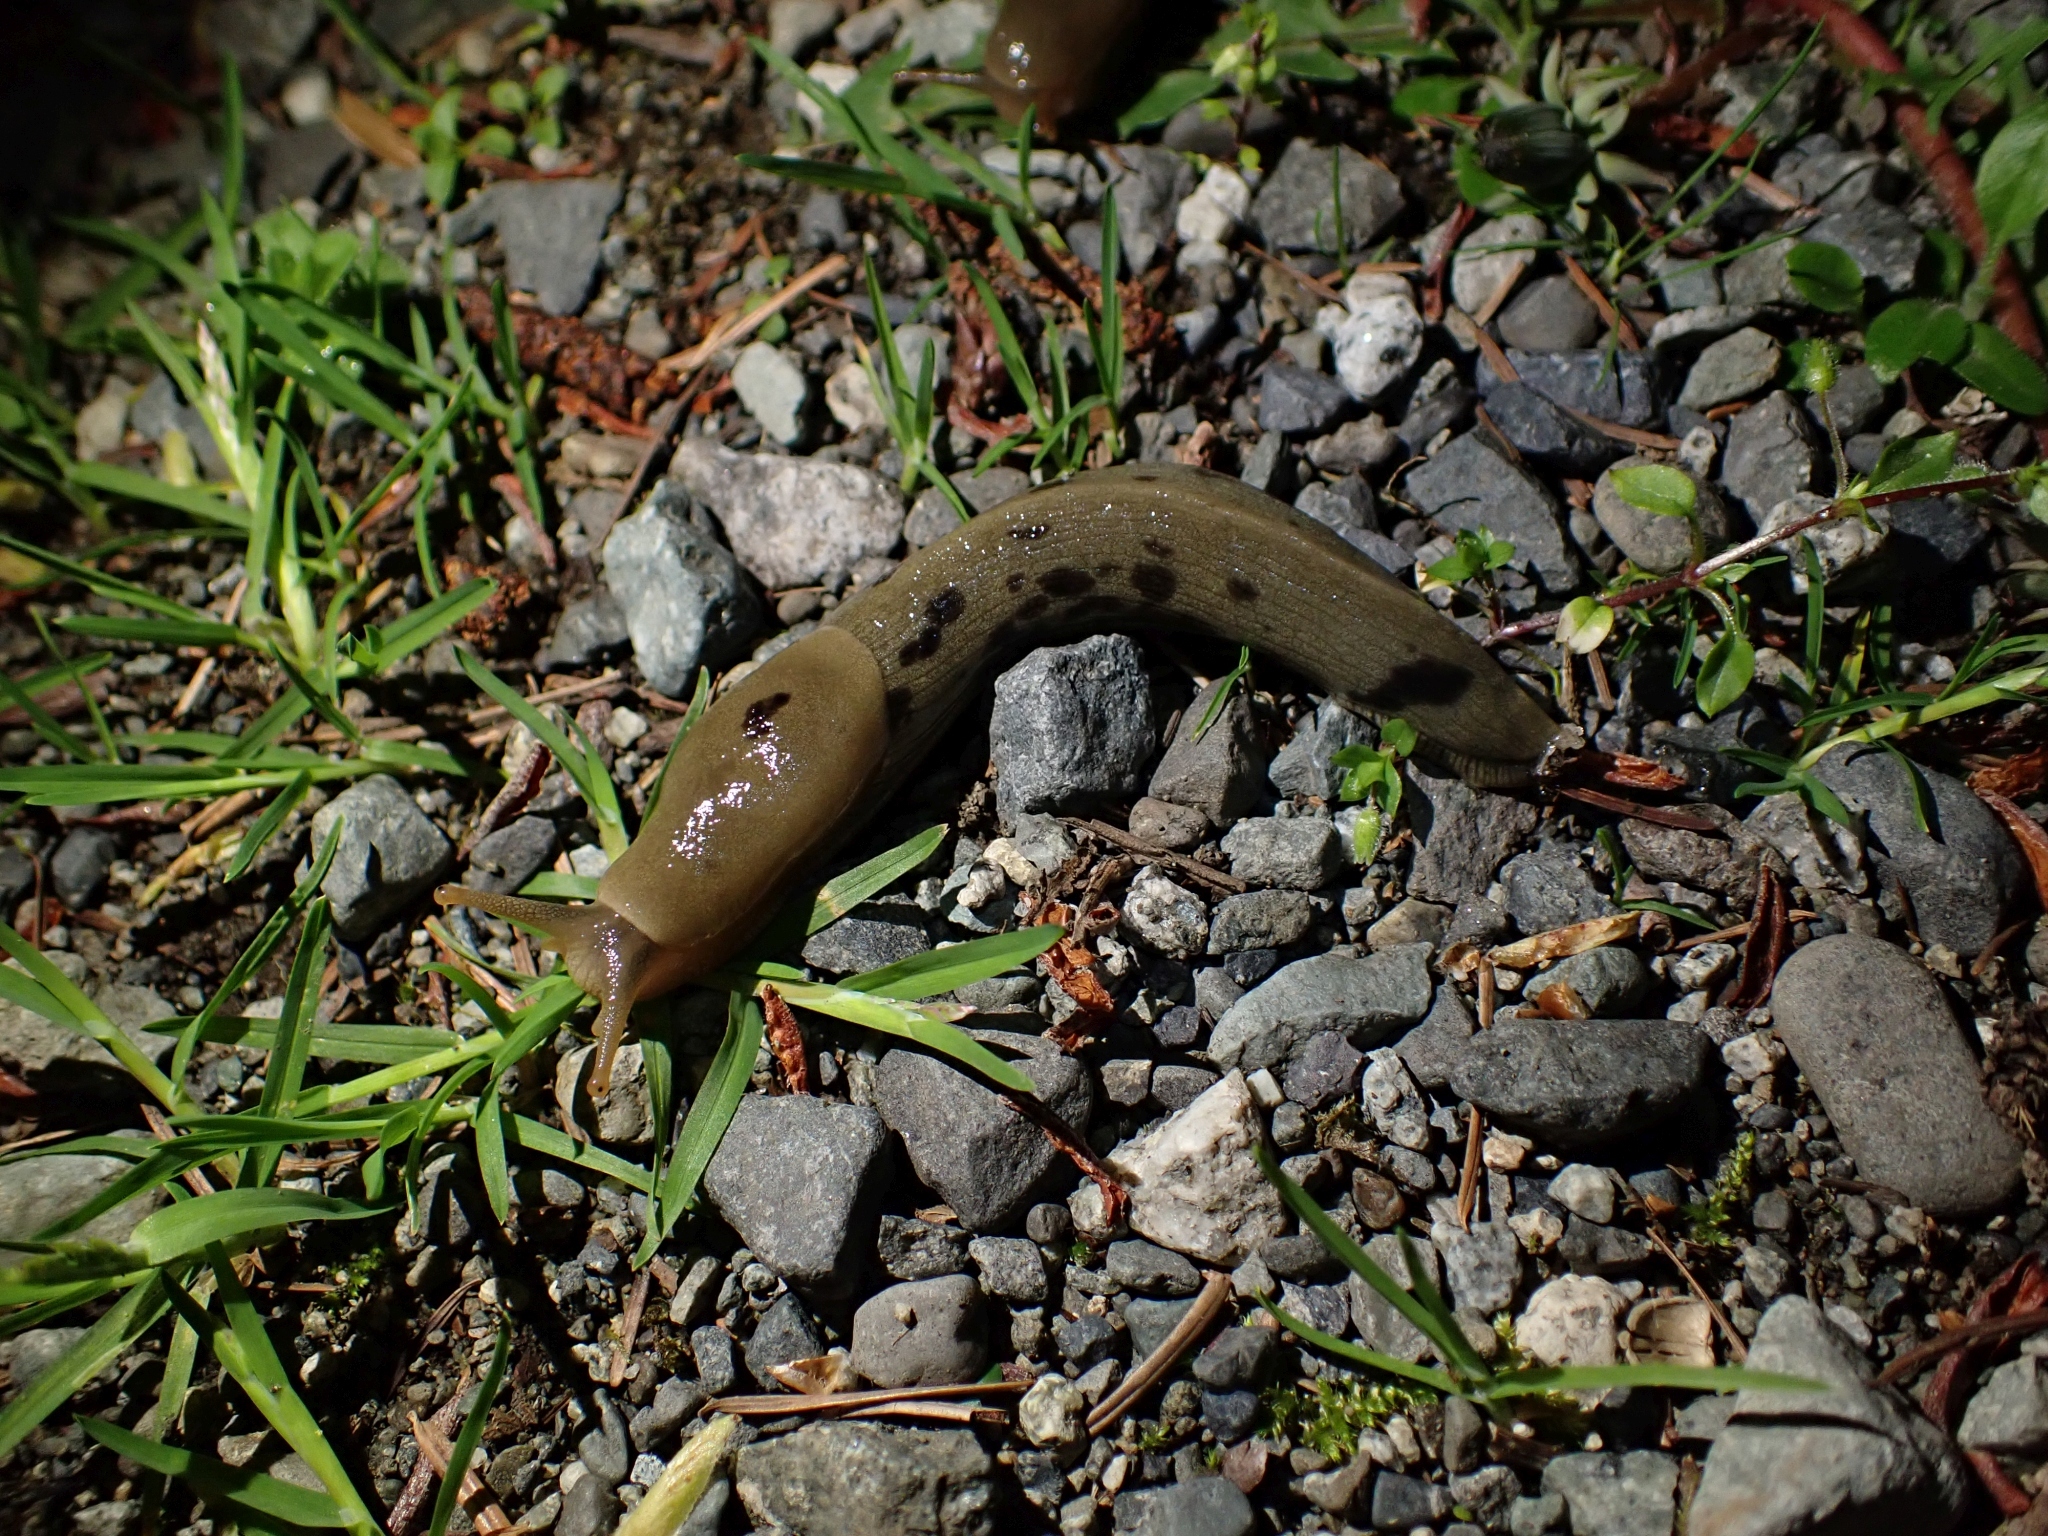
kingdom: Animalia
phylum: Mollusca
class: Gastropoda
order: Stylommatophora
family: Ariolimacidae
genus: Ariolimax
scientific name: Ariolimax columbianus
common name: Pacific banana slug
